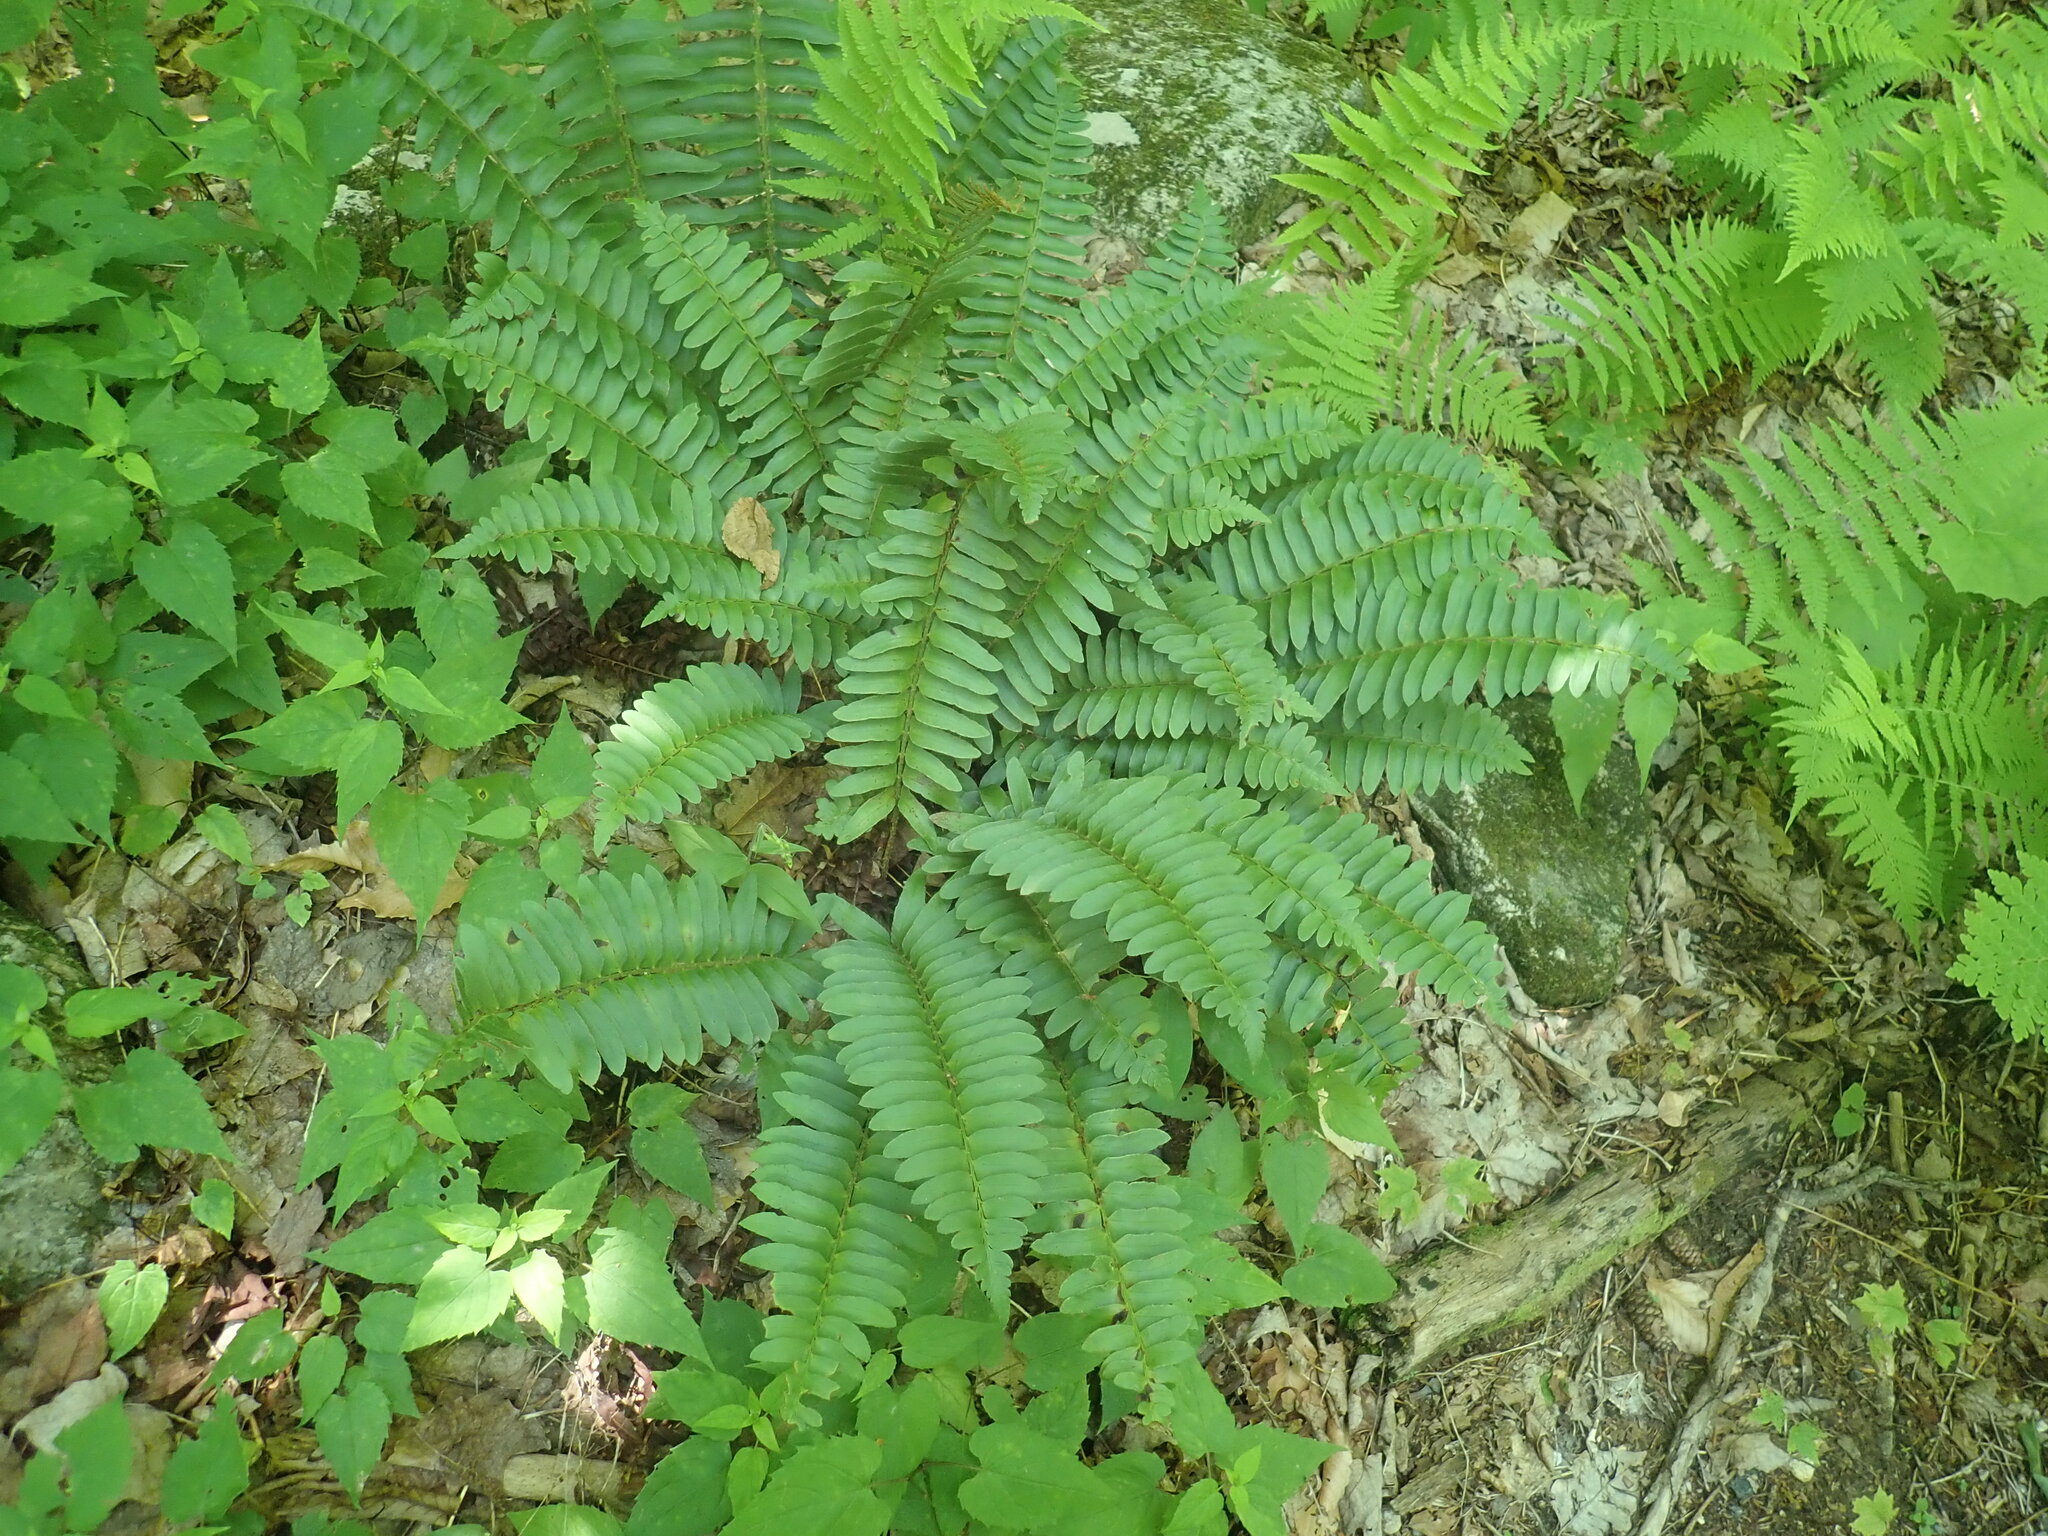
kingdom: Plantae
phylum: Tracheophyta
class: Polypodiopsida
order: Polypodiales
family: Dryopteridaceae
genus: Polystichum
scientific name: Polystichum acrostichoides
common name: Christmas fern
